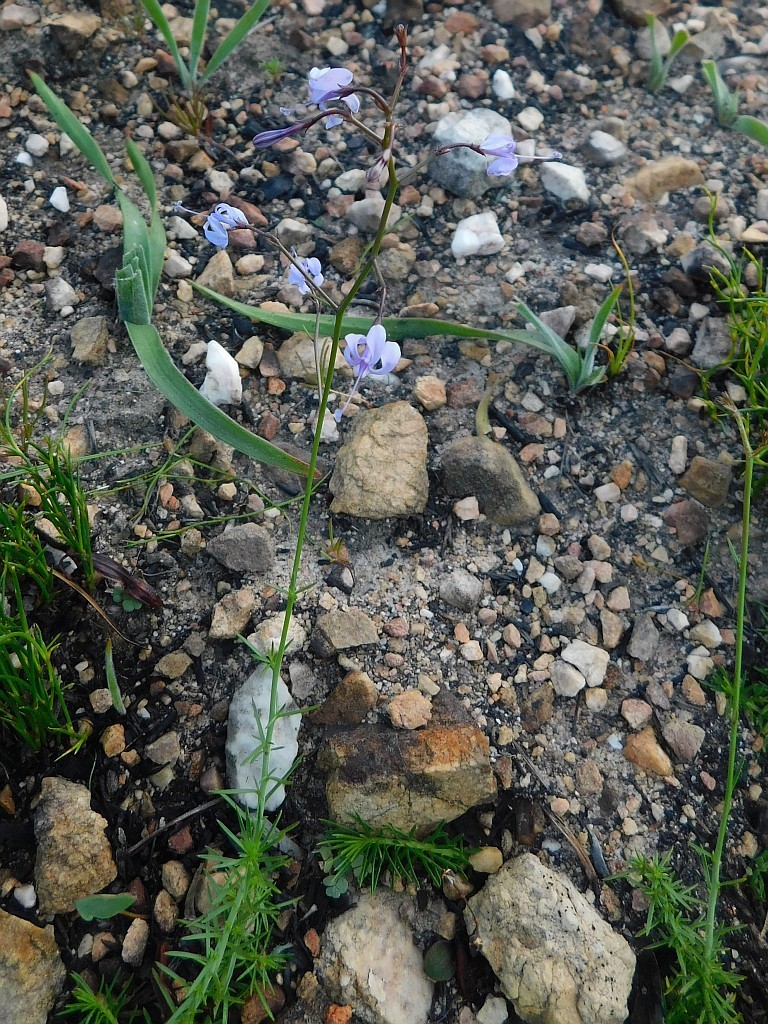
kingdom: Plantae
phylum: Tracheophyta
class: Magnoliopsida
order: Asterales
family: Campanulaceae
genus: Prismatocarpus
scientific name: Prismatocarpus diffusus
